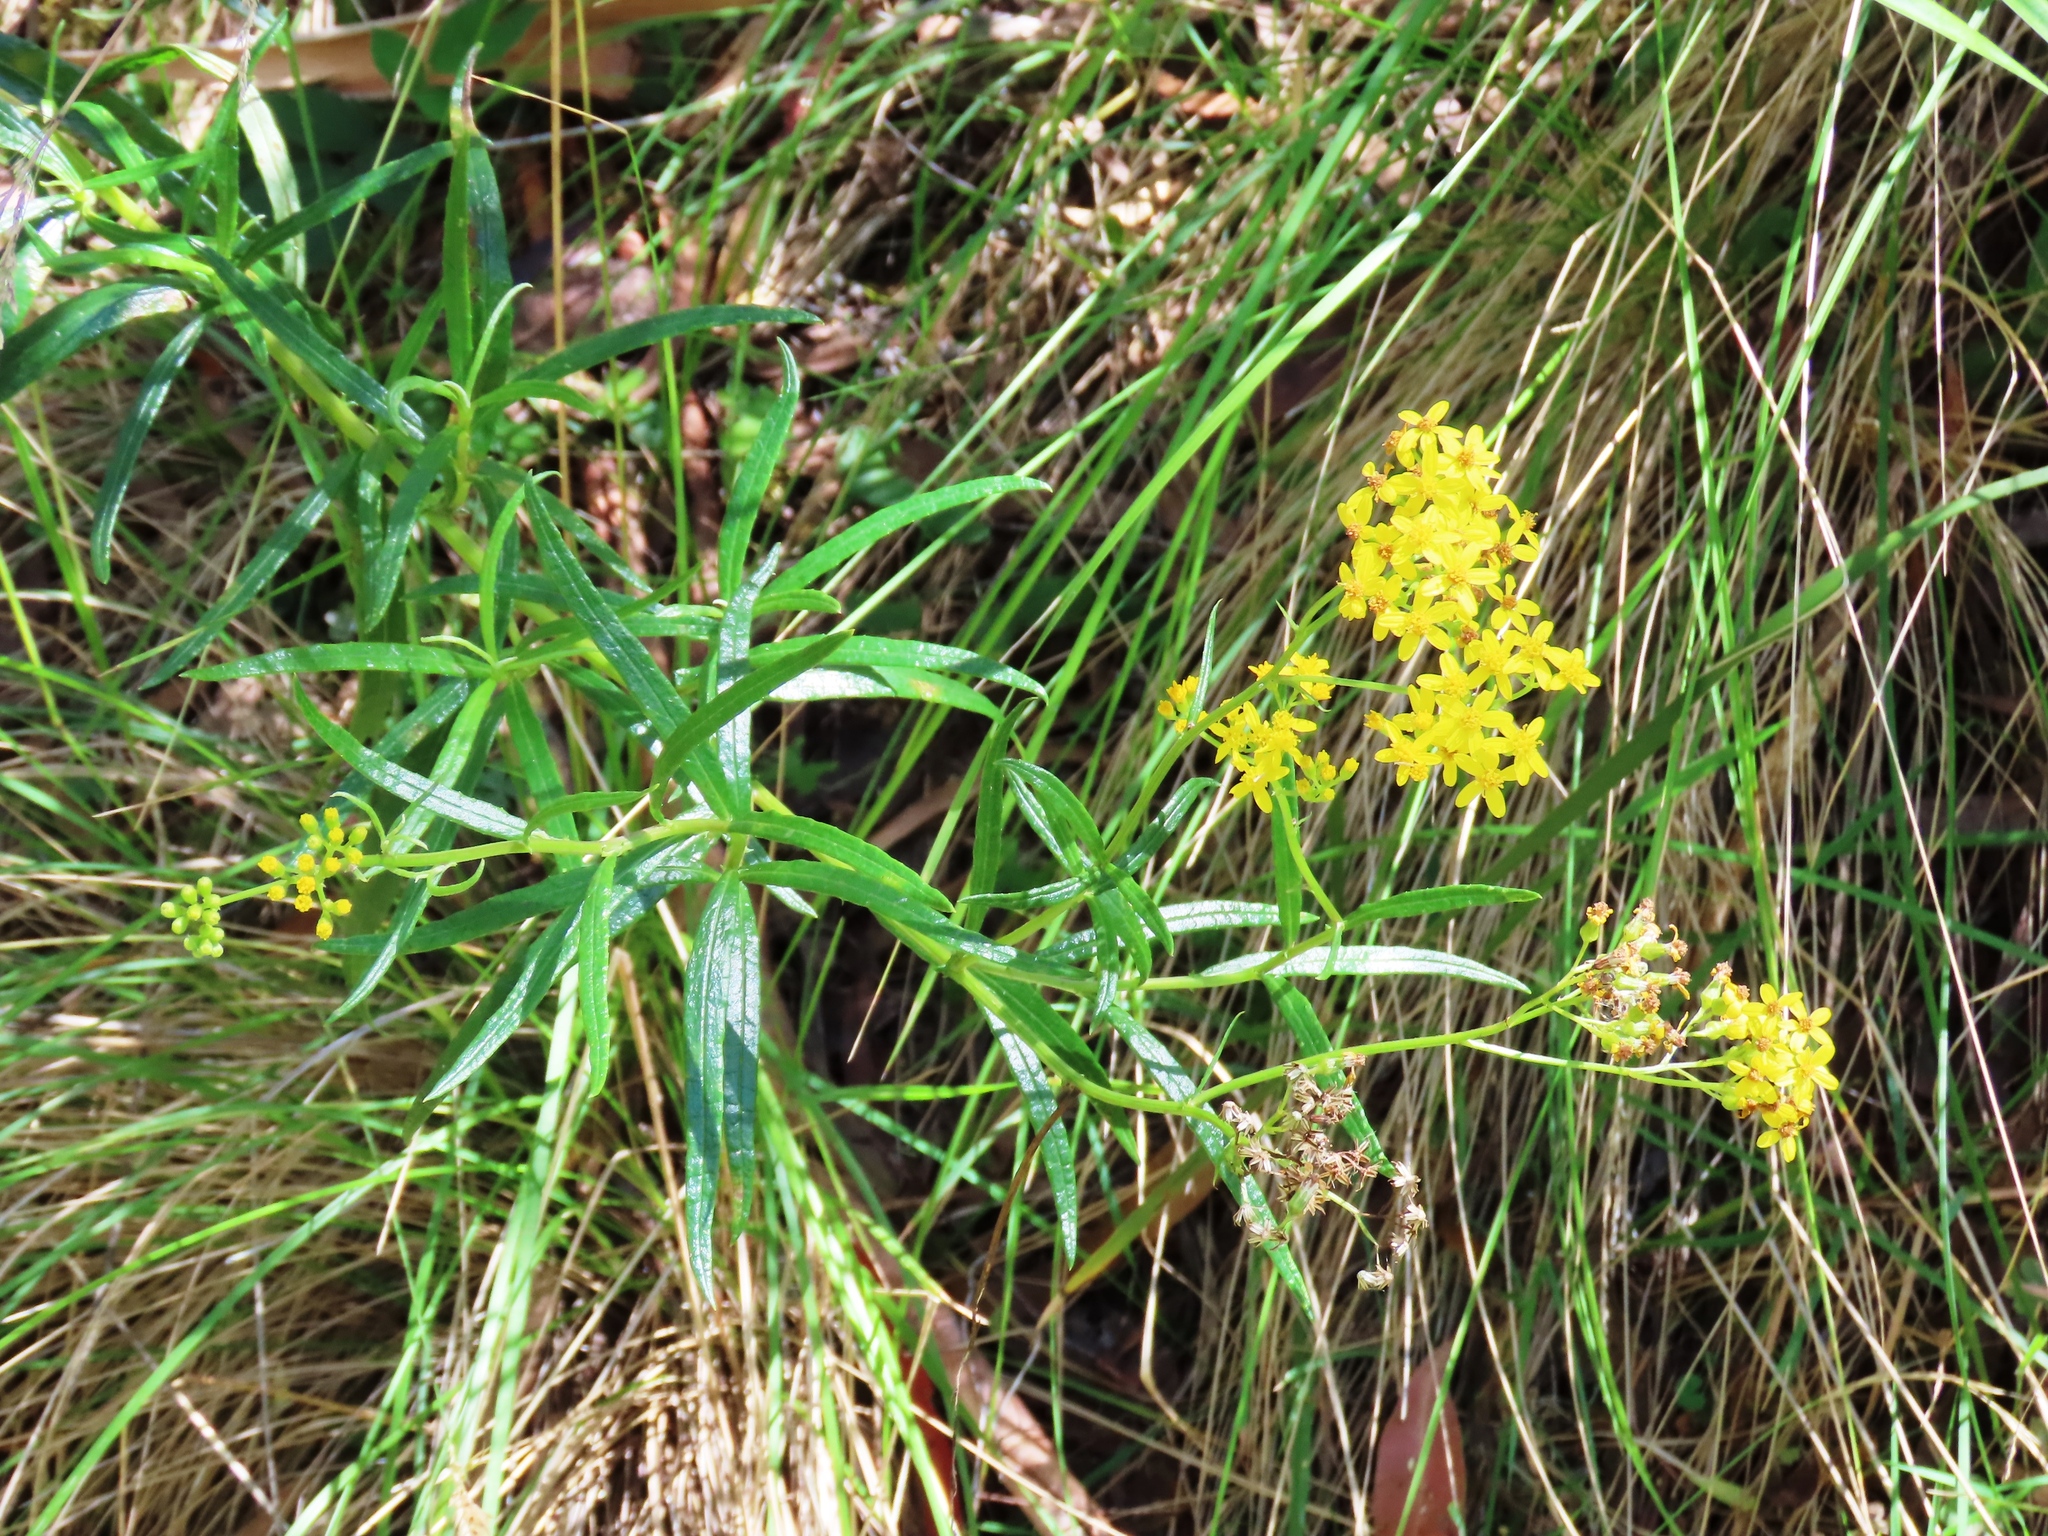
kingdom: Plantae
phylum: Tracheophyta
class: Magnoliopsida
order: Asterales
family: Asteraceae
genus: Senecio
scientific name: Senecio linearifolius
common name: Fireweed groundsel
